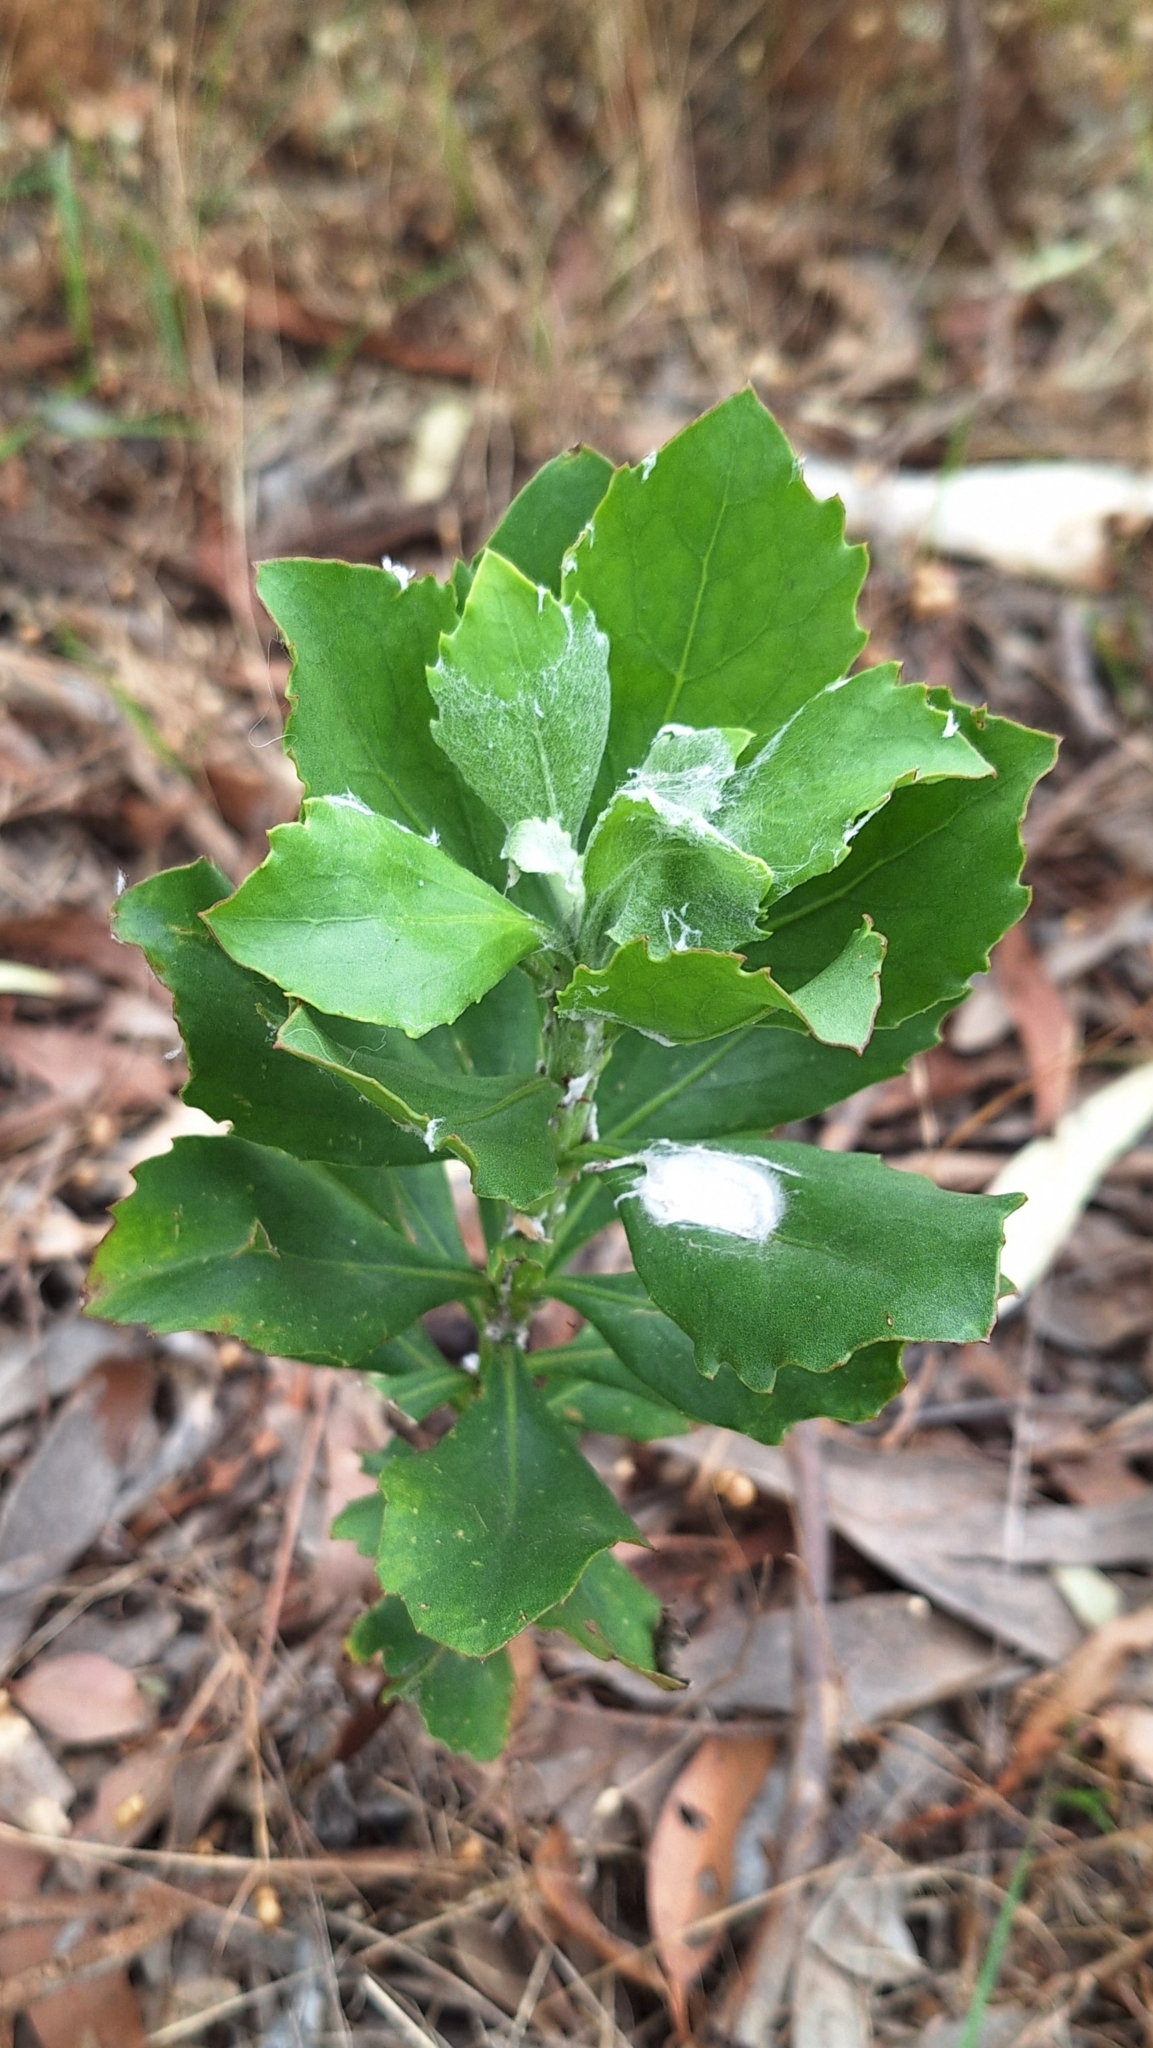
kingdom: Plantae
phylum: Tracheophyta
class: Magnoliopsida
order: Asterales
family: Asteraceae
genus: Osteospermum
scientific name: Osteospermum moniliferum
